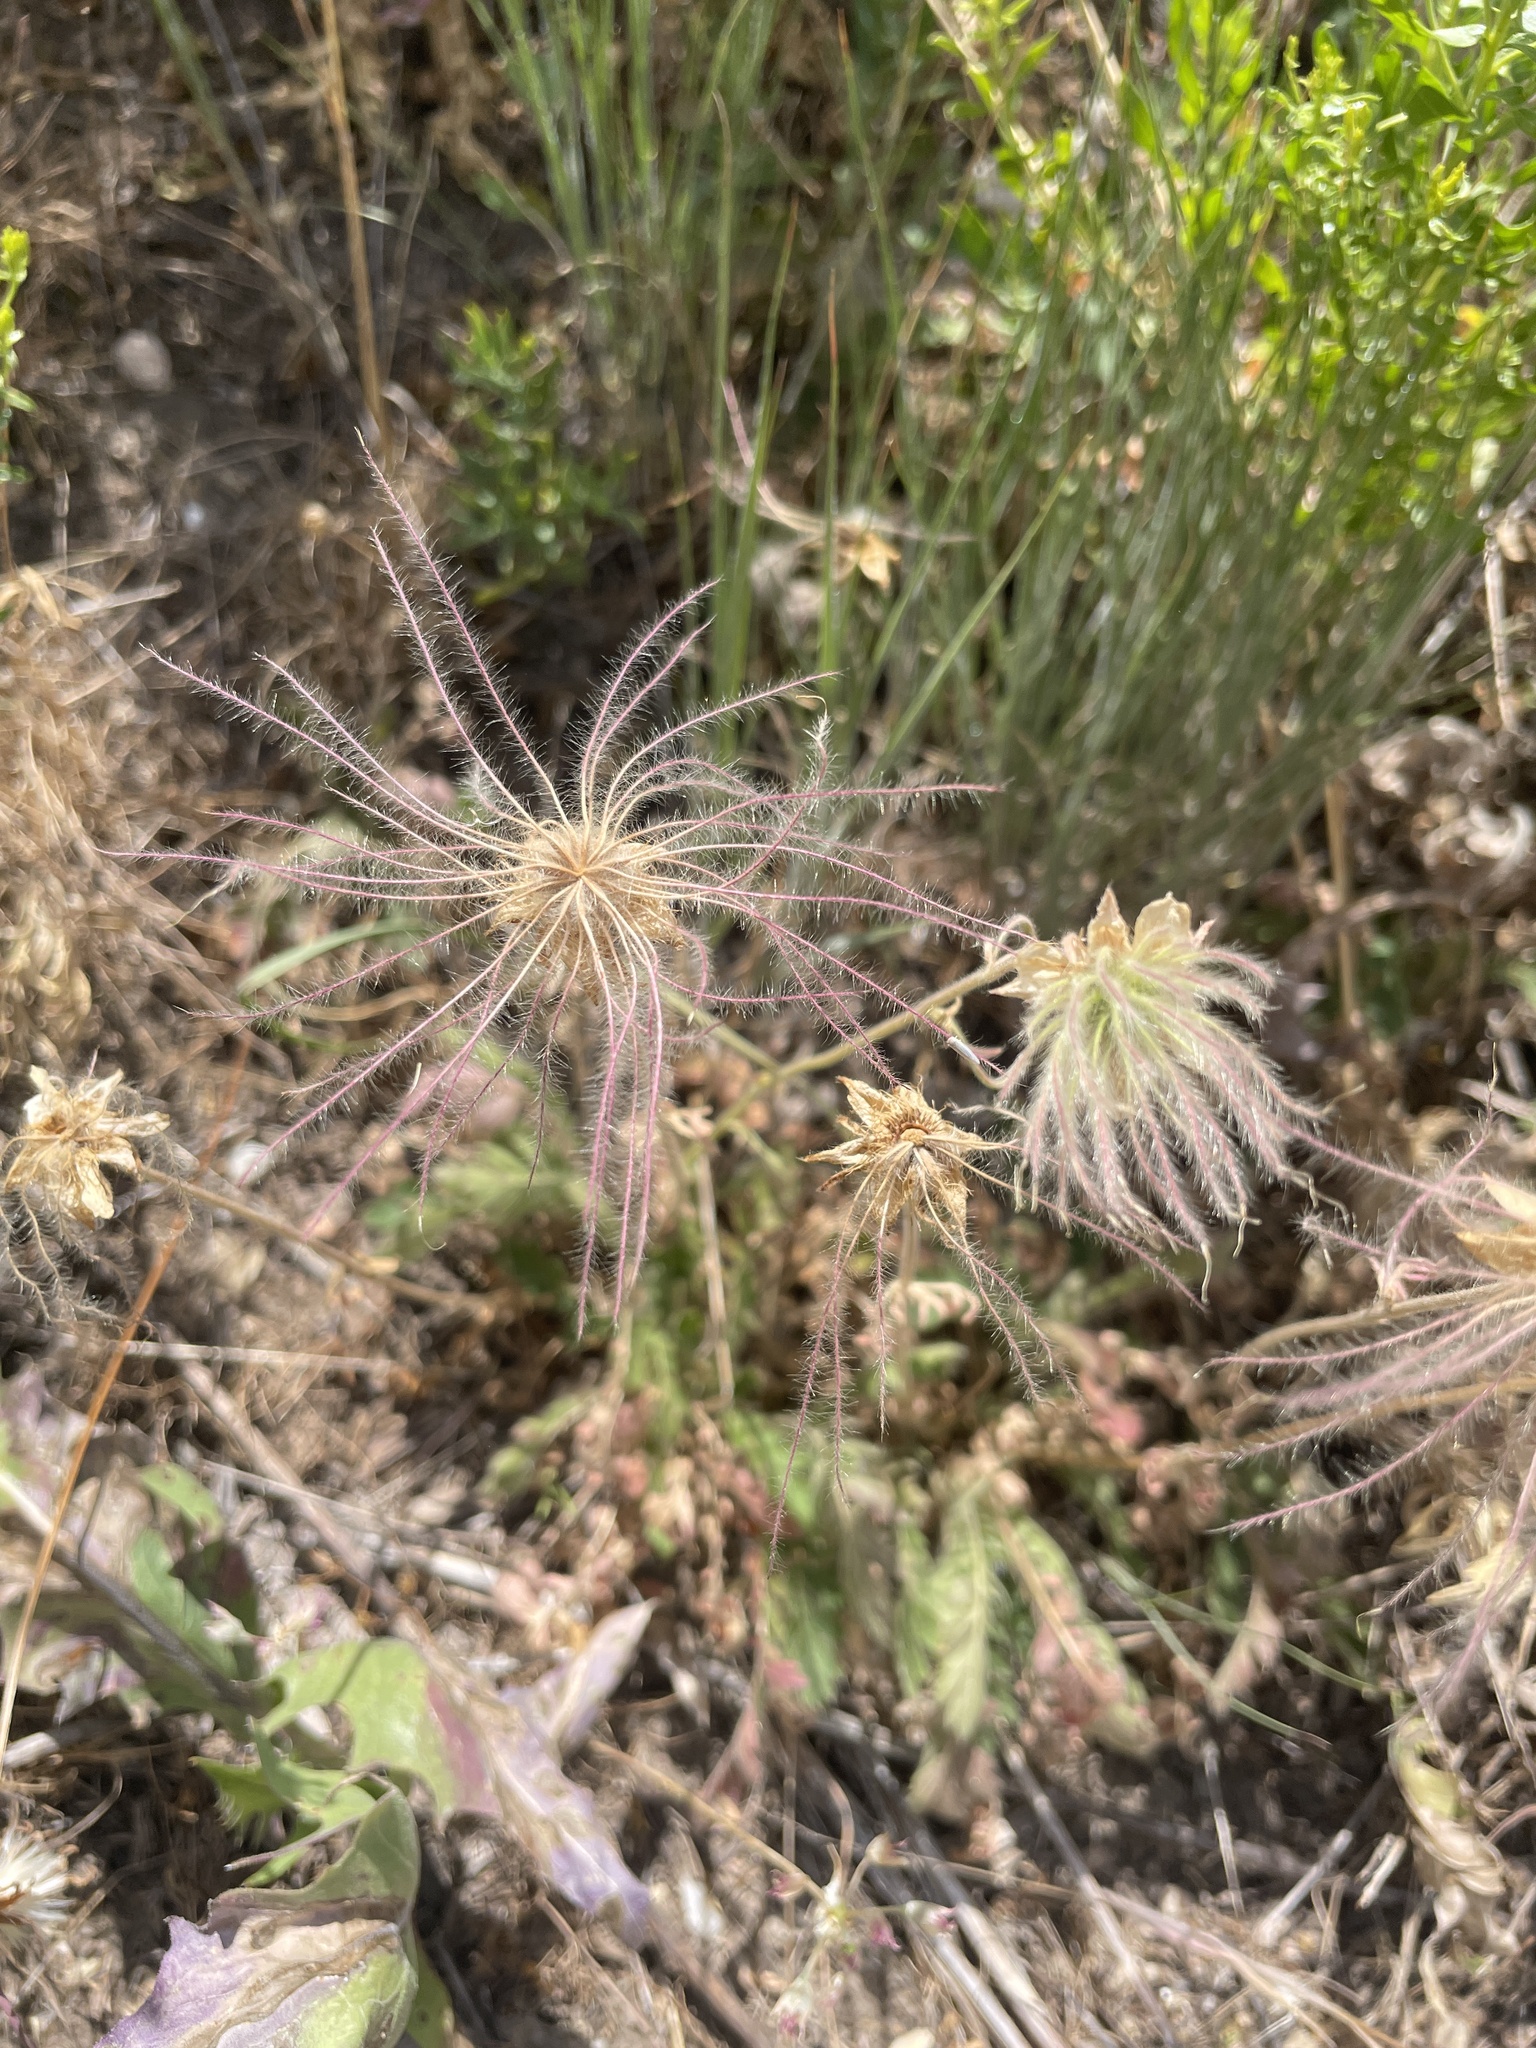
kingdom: Plantae
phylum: Tracheophyta
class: Magnoliopsida
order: Rosales
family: Rosaceae
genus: Geum
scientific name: Geum triflorum
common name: Old man's whiskers
